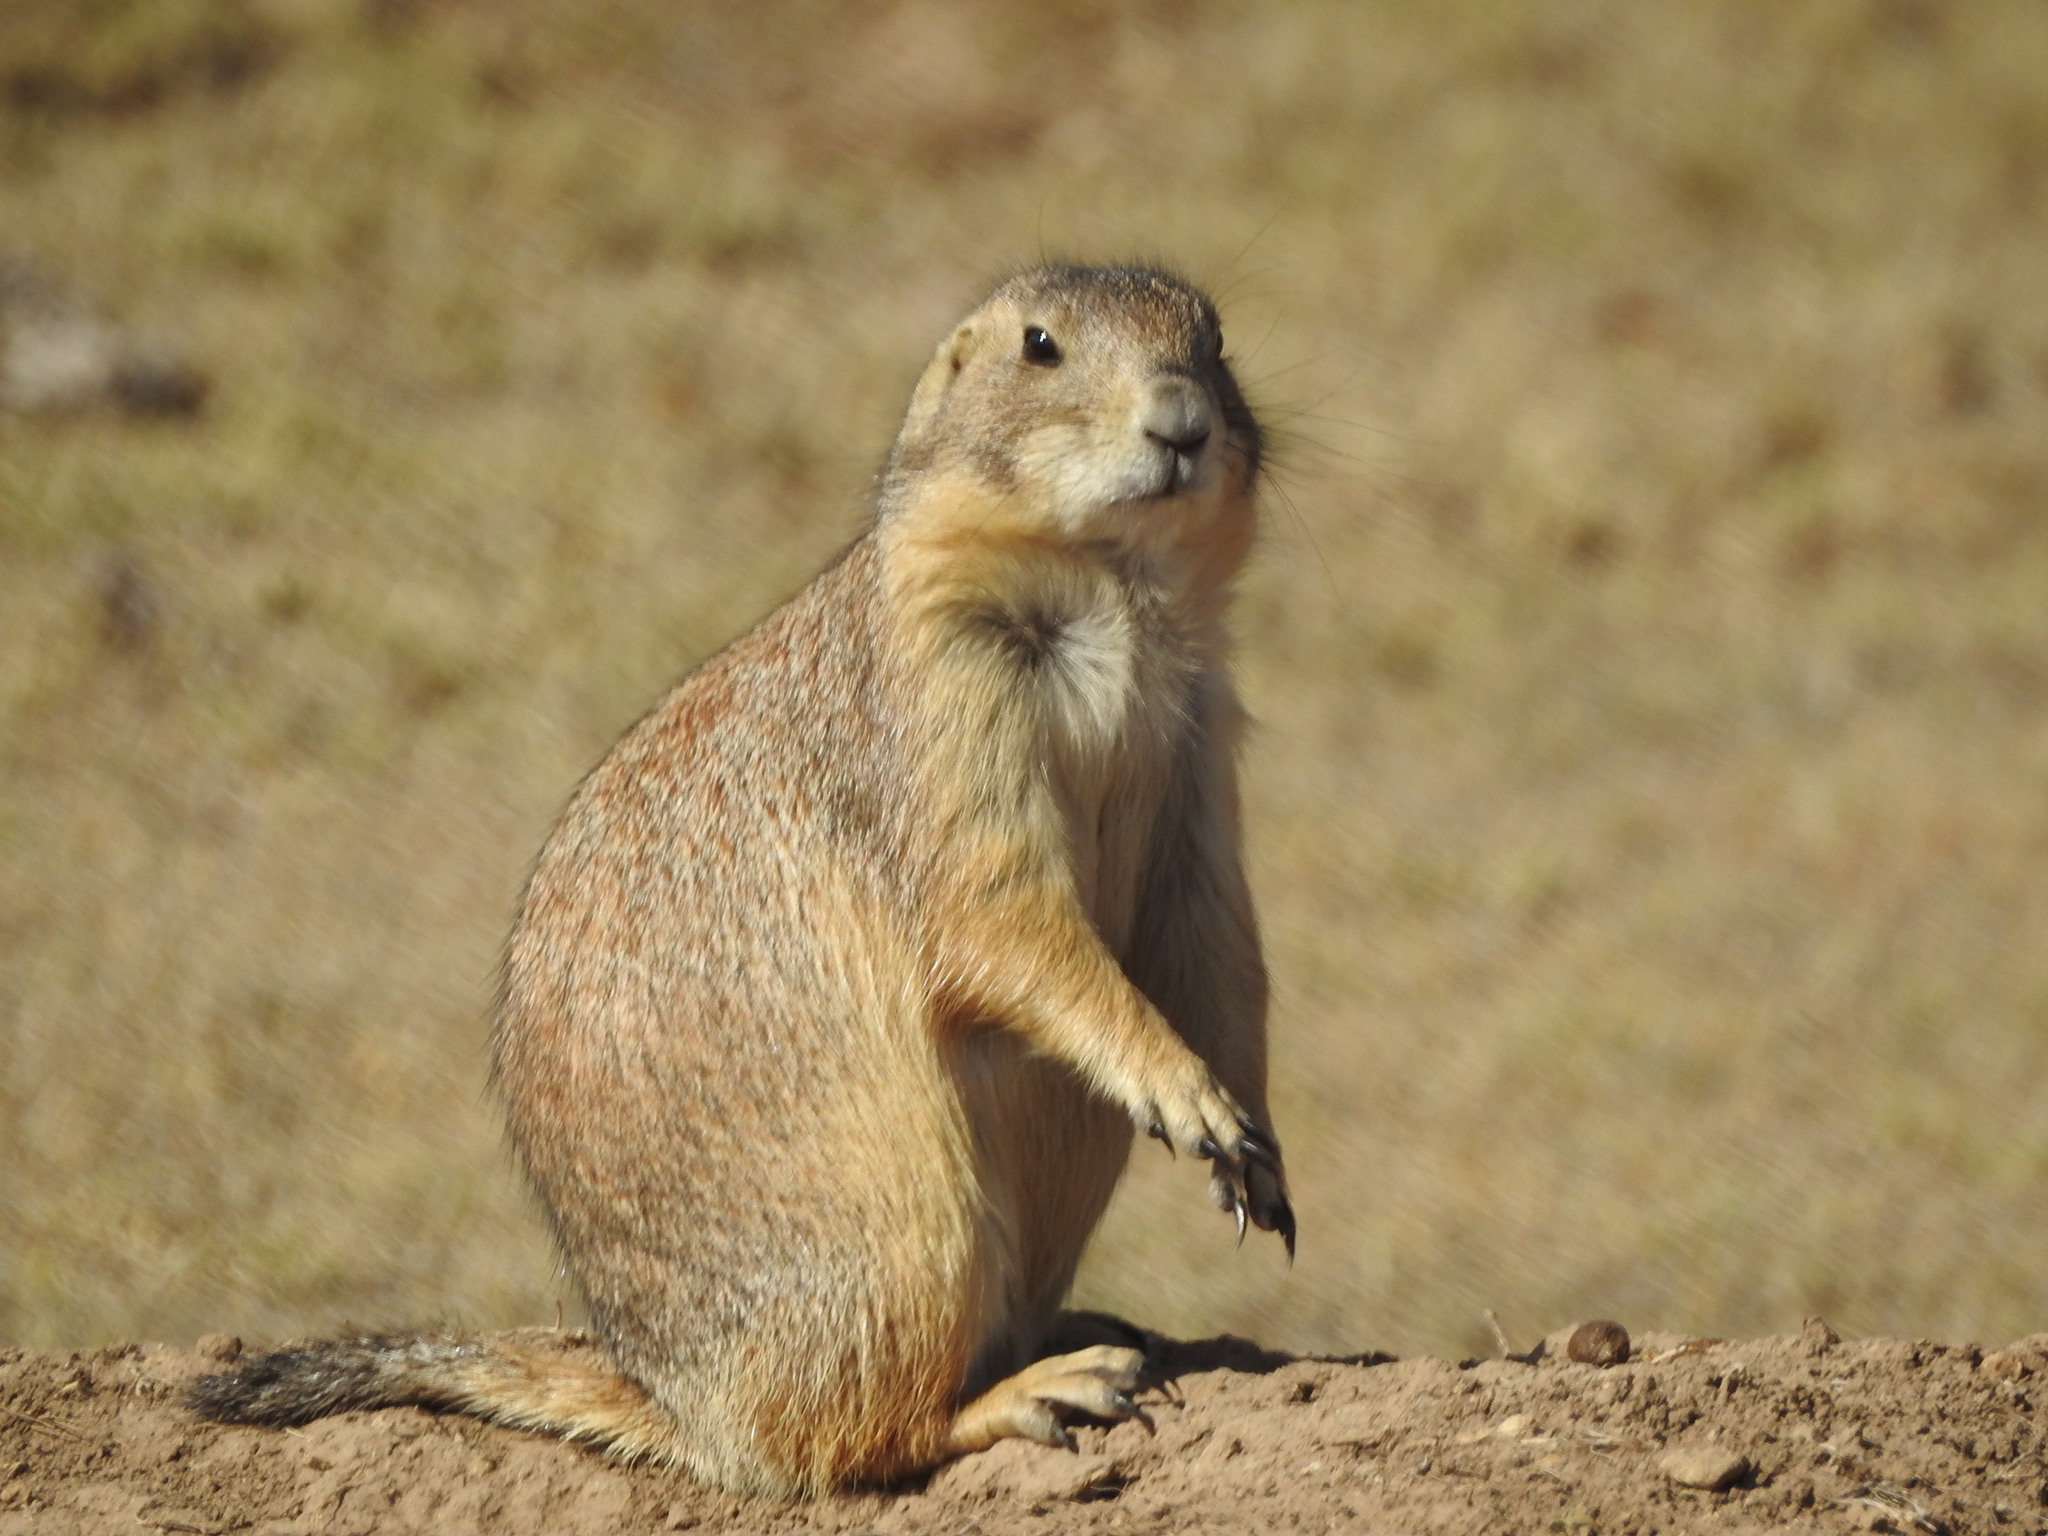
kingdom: Animalia
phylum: Chordata
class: Mammalia
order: Rodentia
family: Sciuridae
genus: Cynomys
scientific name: Cynomys mexicanus
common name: Mexican prairie dog
